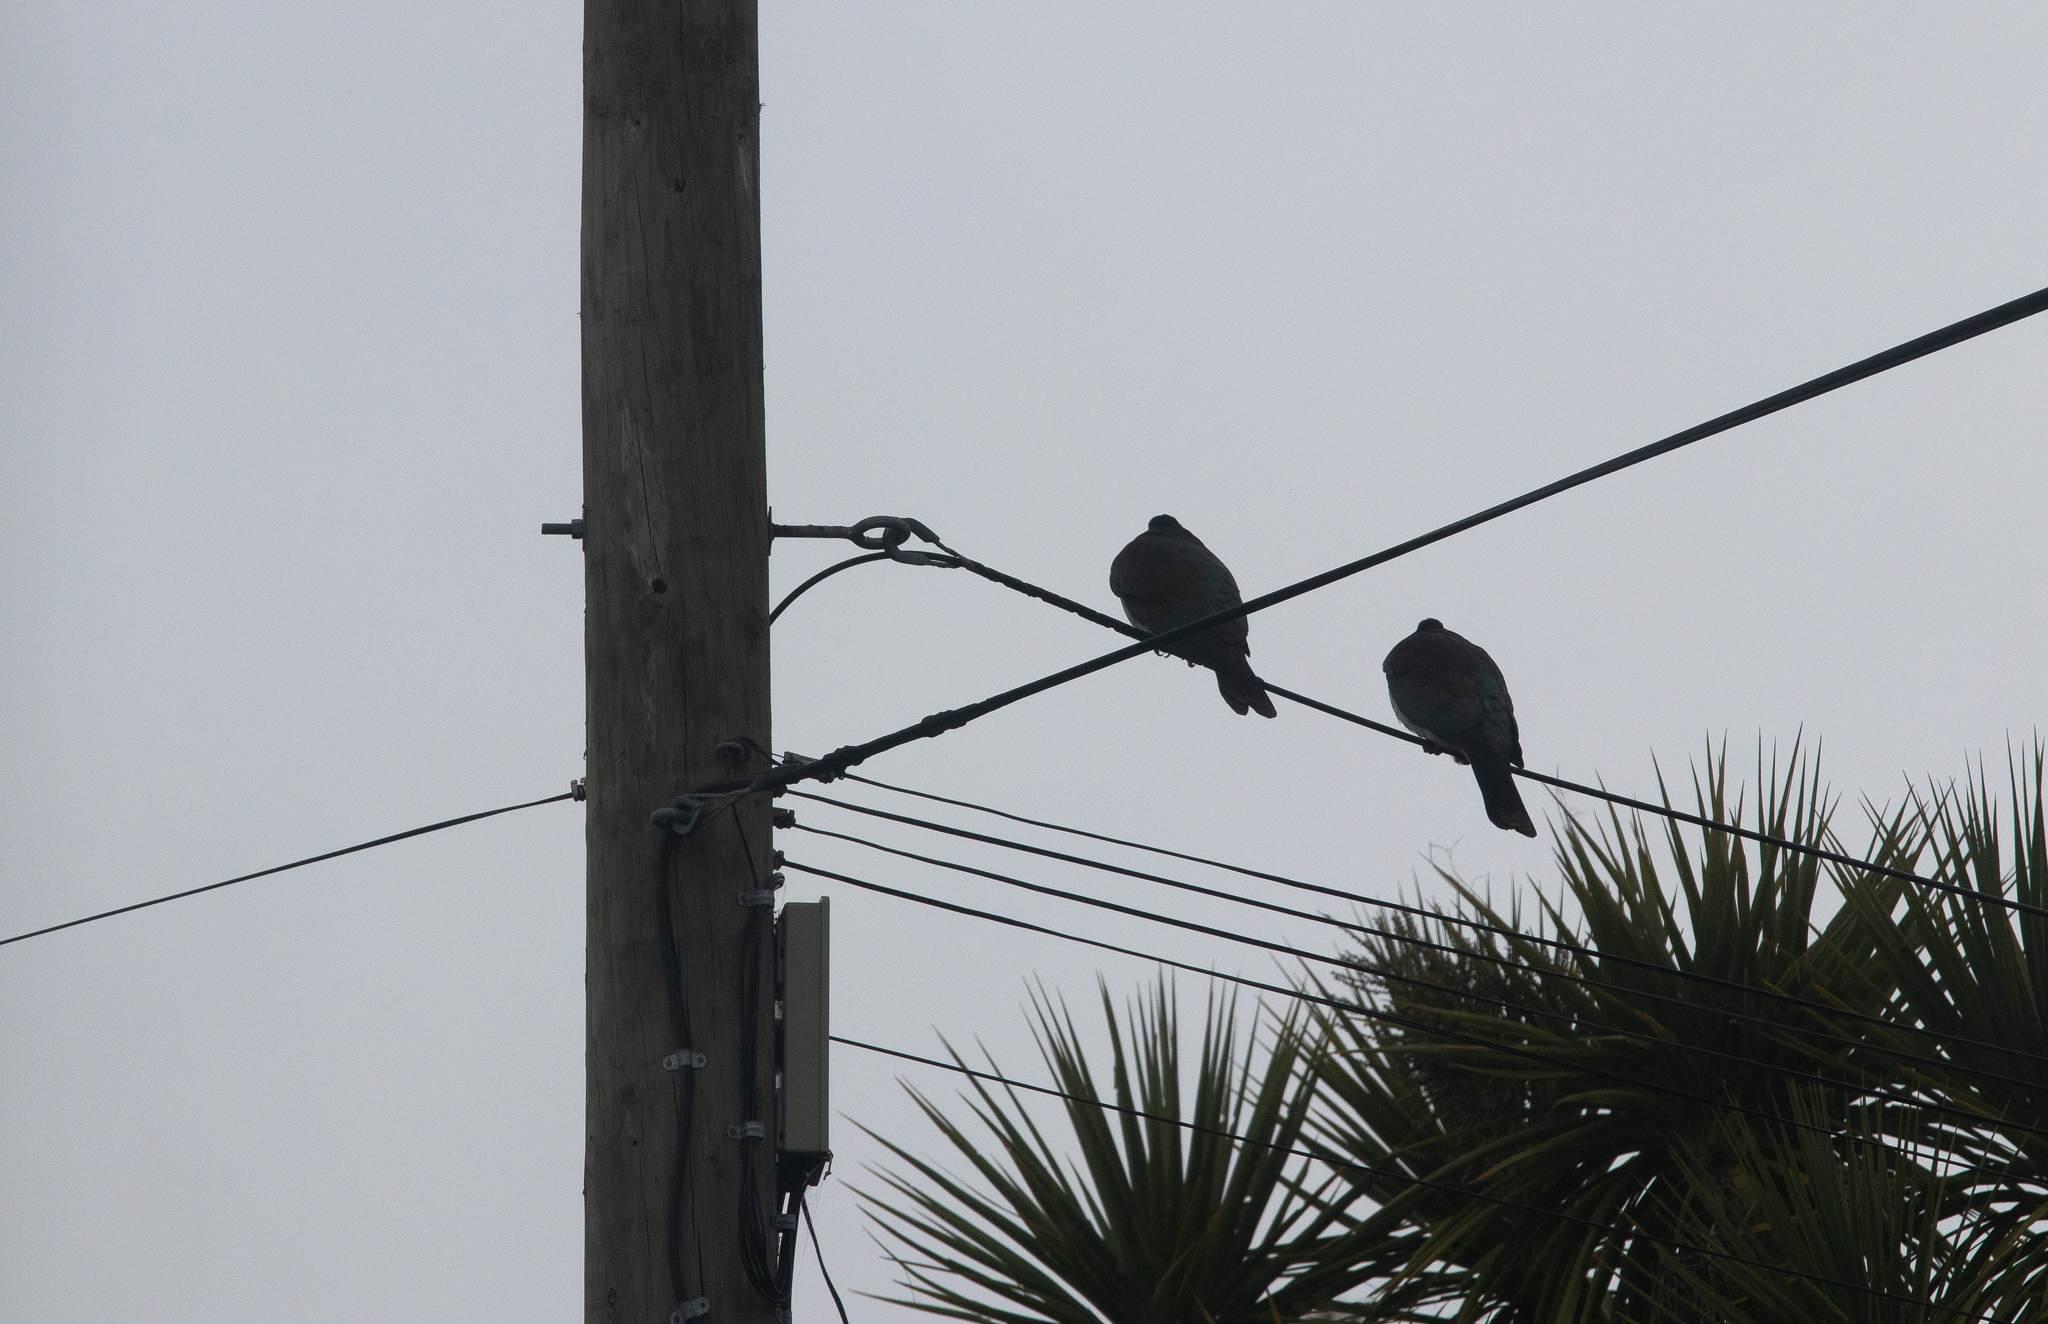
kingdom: Animalia
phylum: Chordata
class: Aves
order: Columbiformes
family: Columbidae
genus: Hemiphaga
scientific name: Hemiphaga novaeseelandiae
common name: New zealand pigeon
